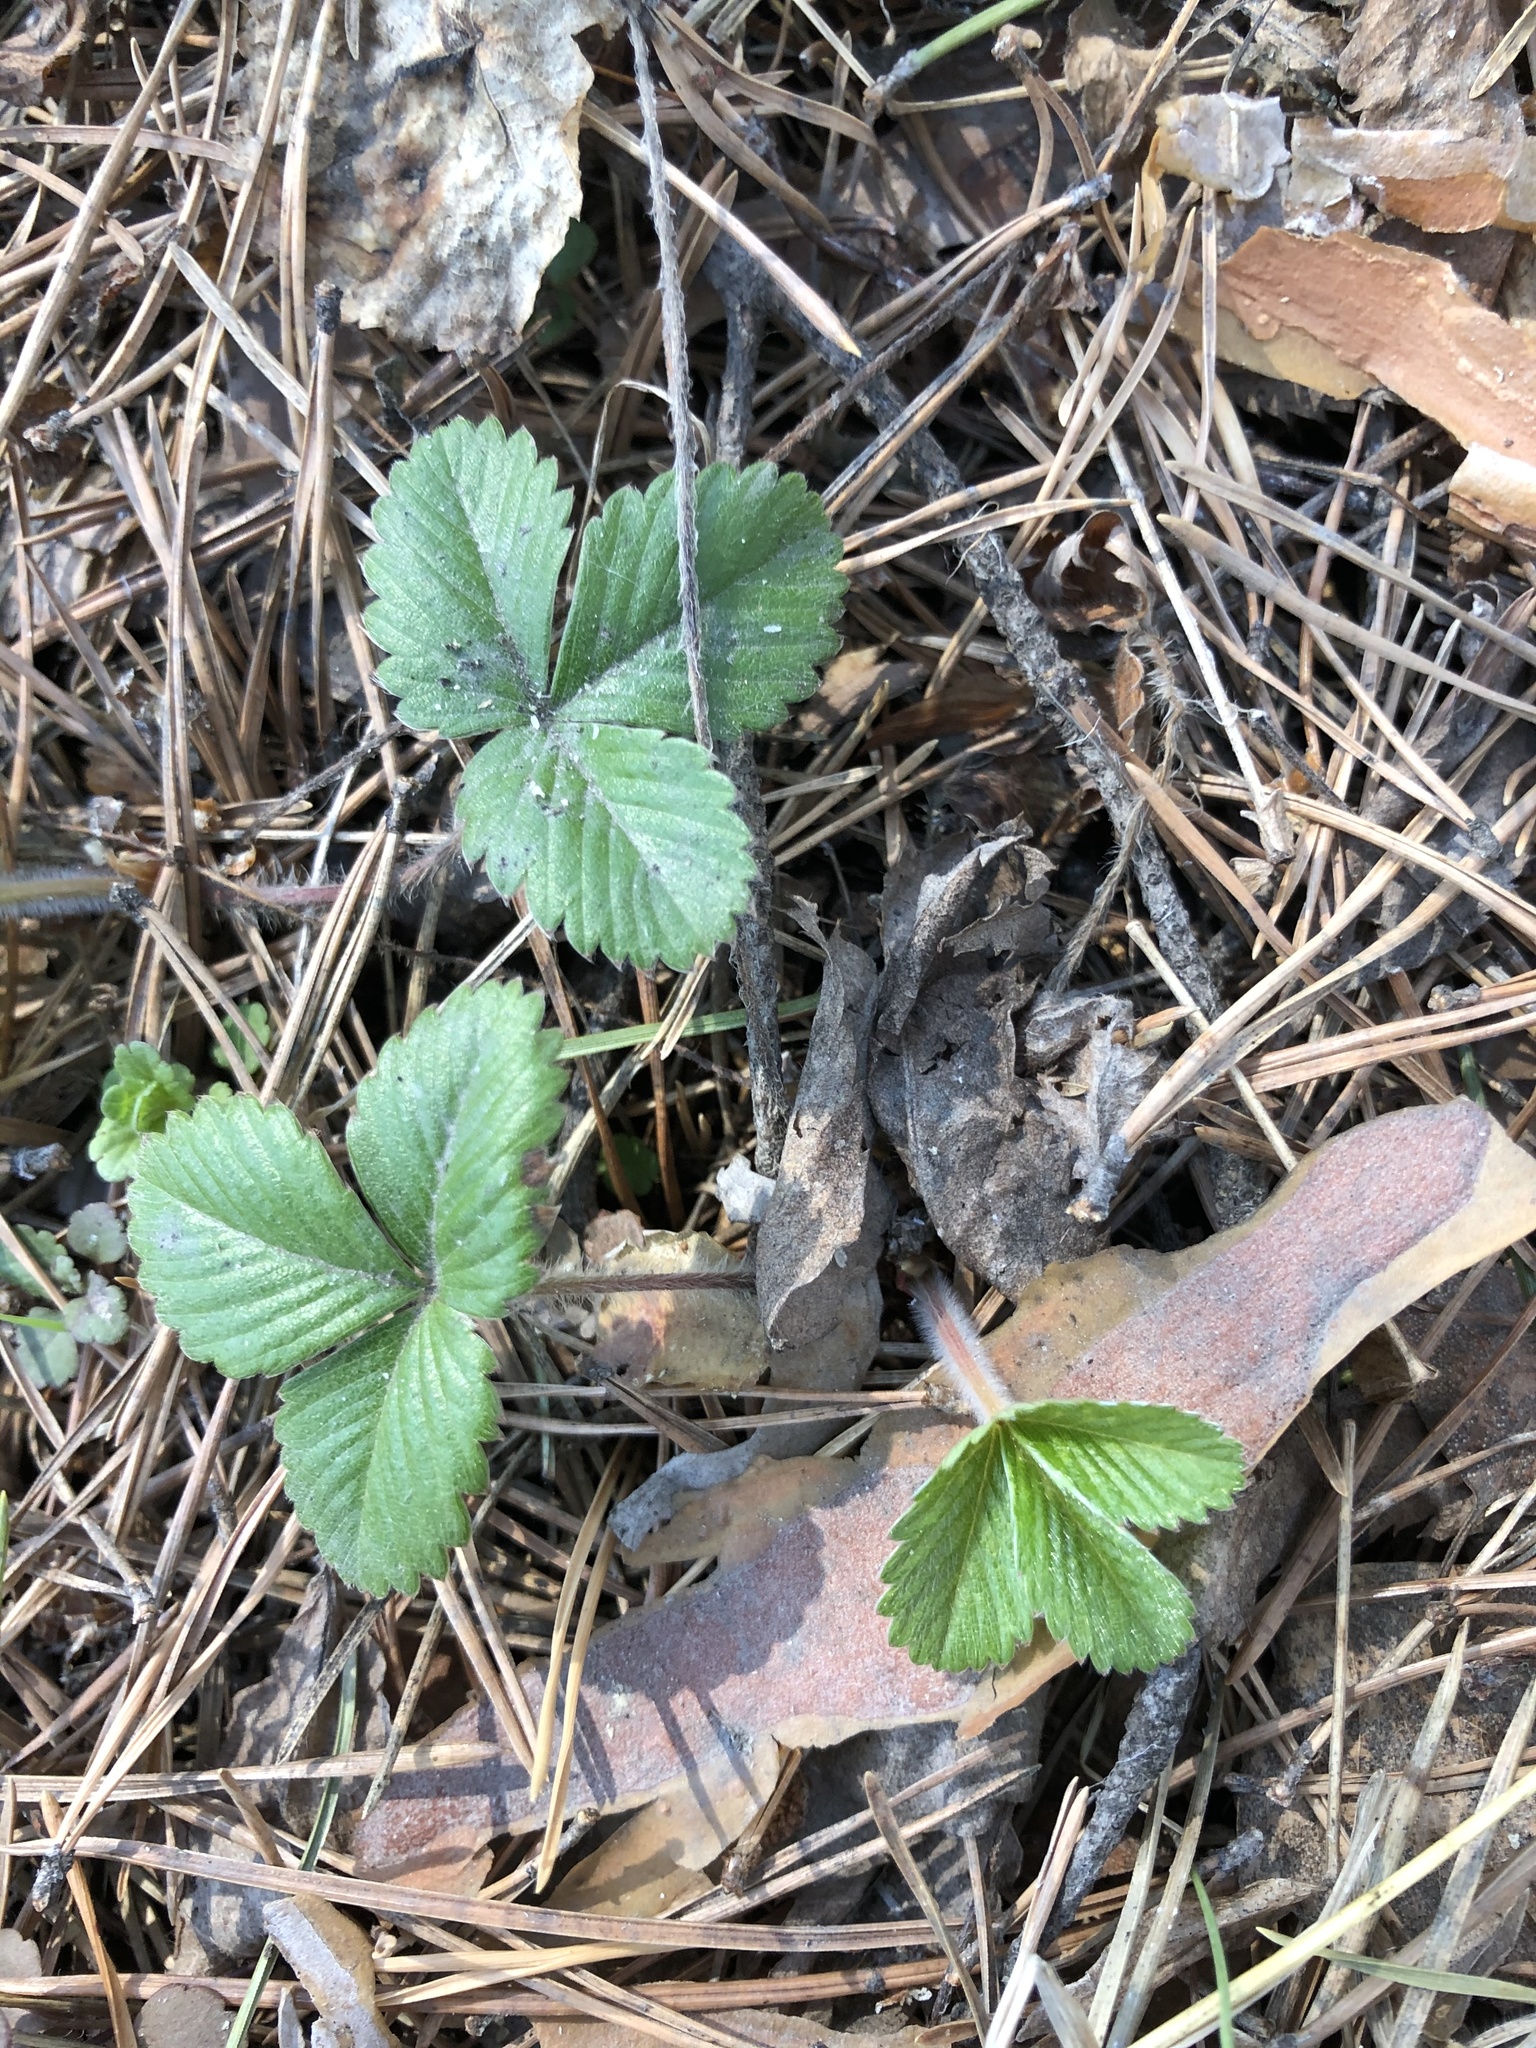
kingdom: Plantae
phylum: Tracheophyta
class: Magnoliopsida
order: Rosales
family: Rosaceae
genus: Fragaria
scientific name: Fragaria vesca
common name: Wild strawberry
